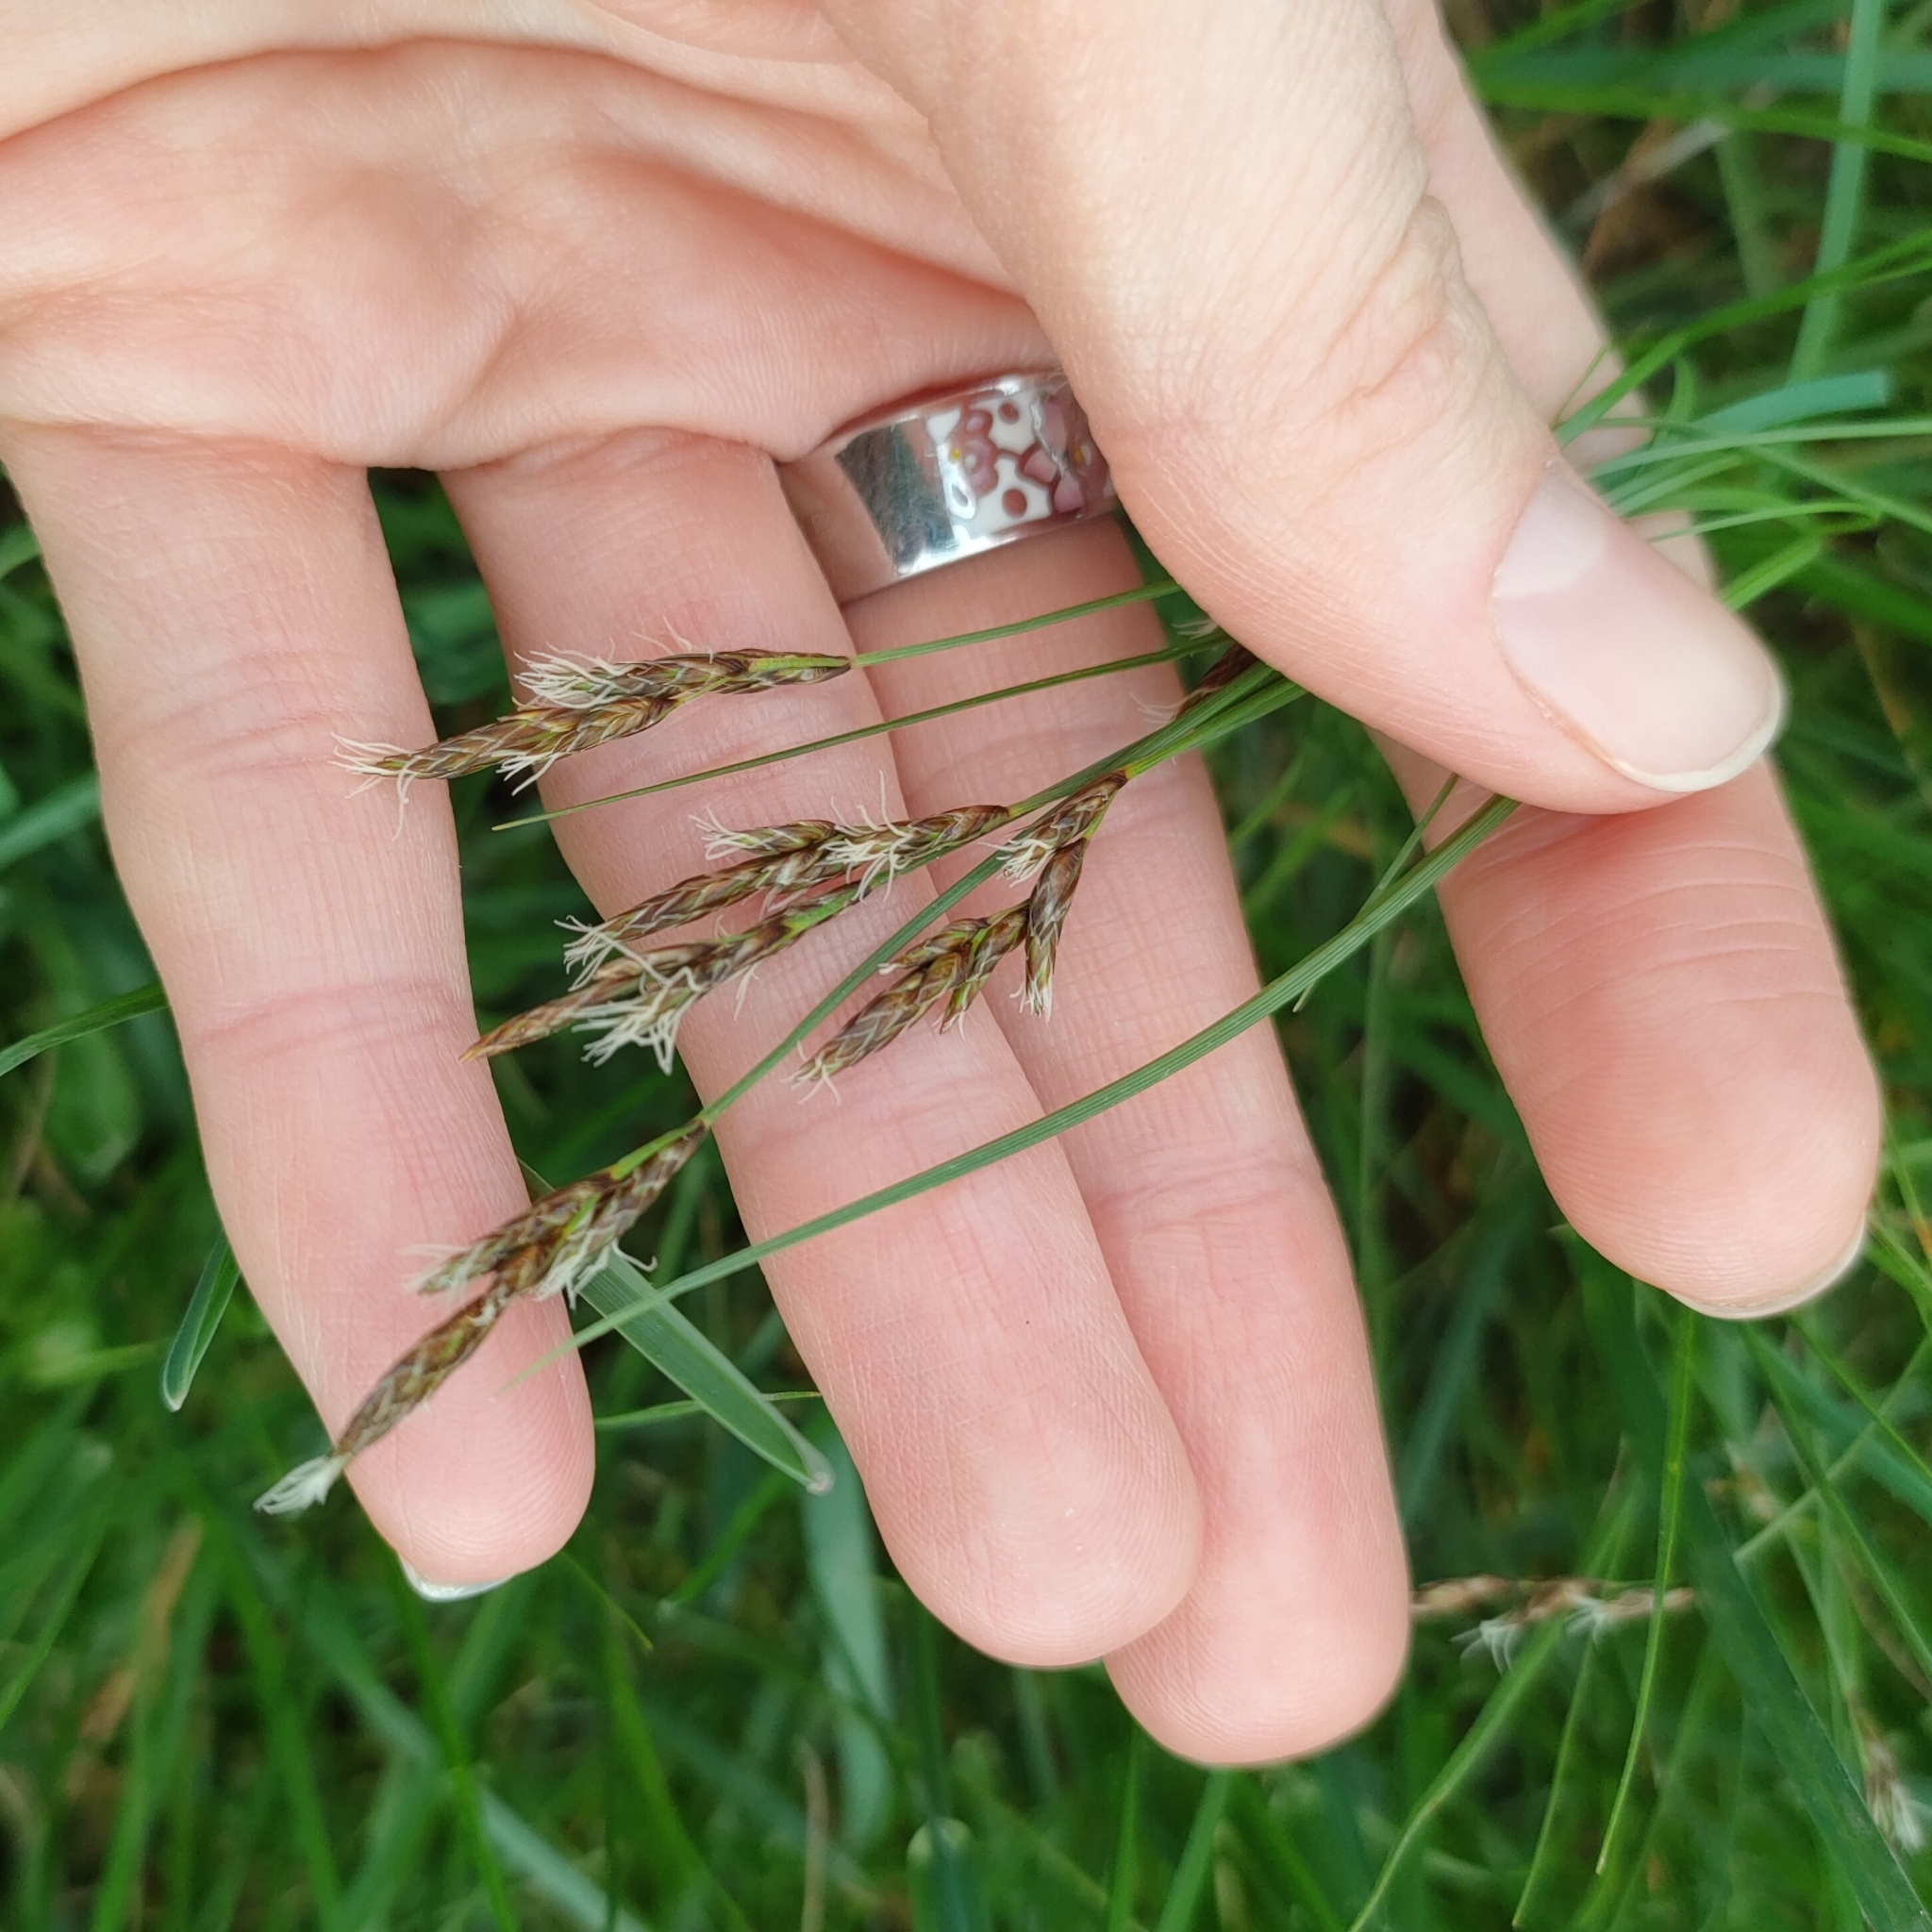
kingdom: Plantae
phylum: Tracheophyta
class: Liliopsida
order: Poales
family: Cyperaceae
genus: Carex
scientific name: Carex praecox
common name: Early sedge
